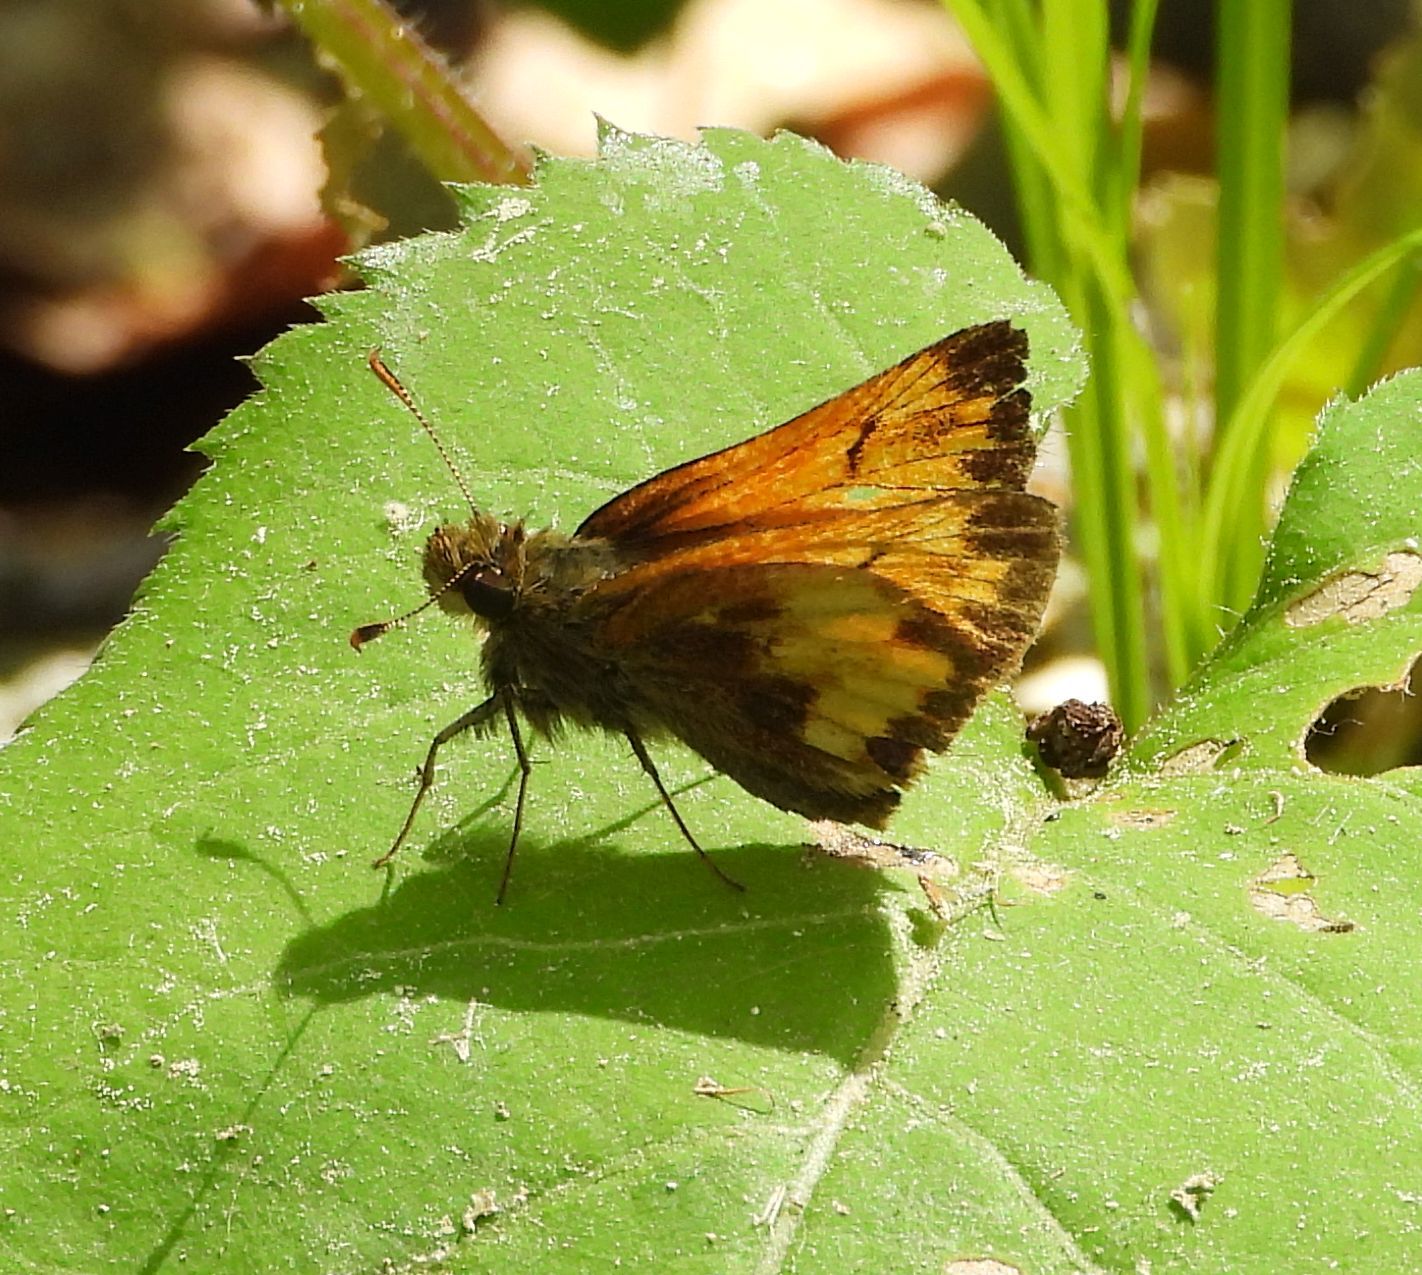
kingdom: Animalia
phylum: Arthropoda
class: Insecta
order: Lepidoptera
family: Hesperiidae
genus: Lon
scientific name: Lon hobomok
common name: Hobomok skipper
